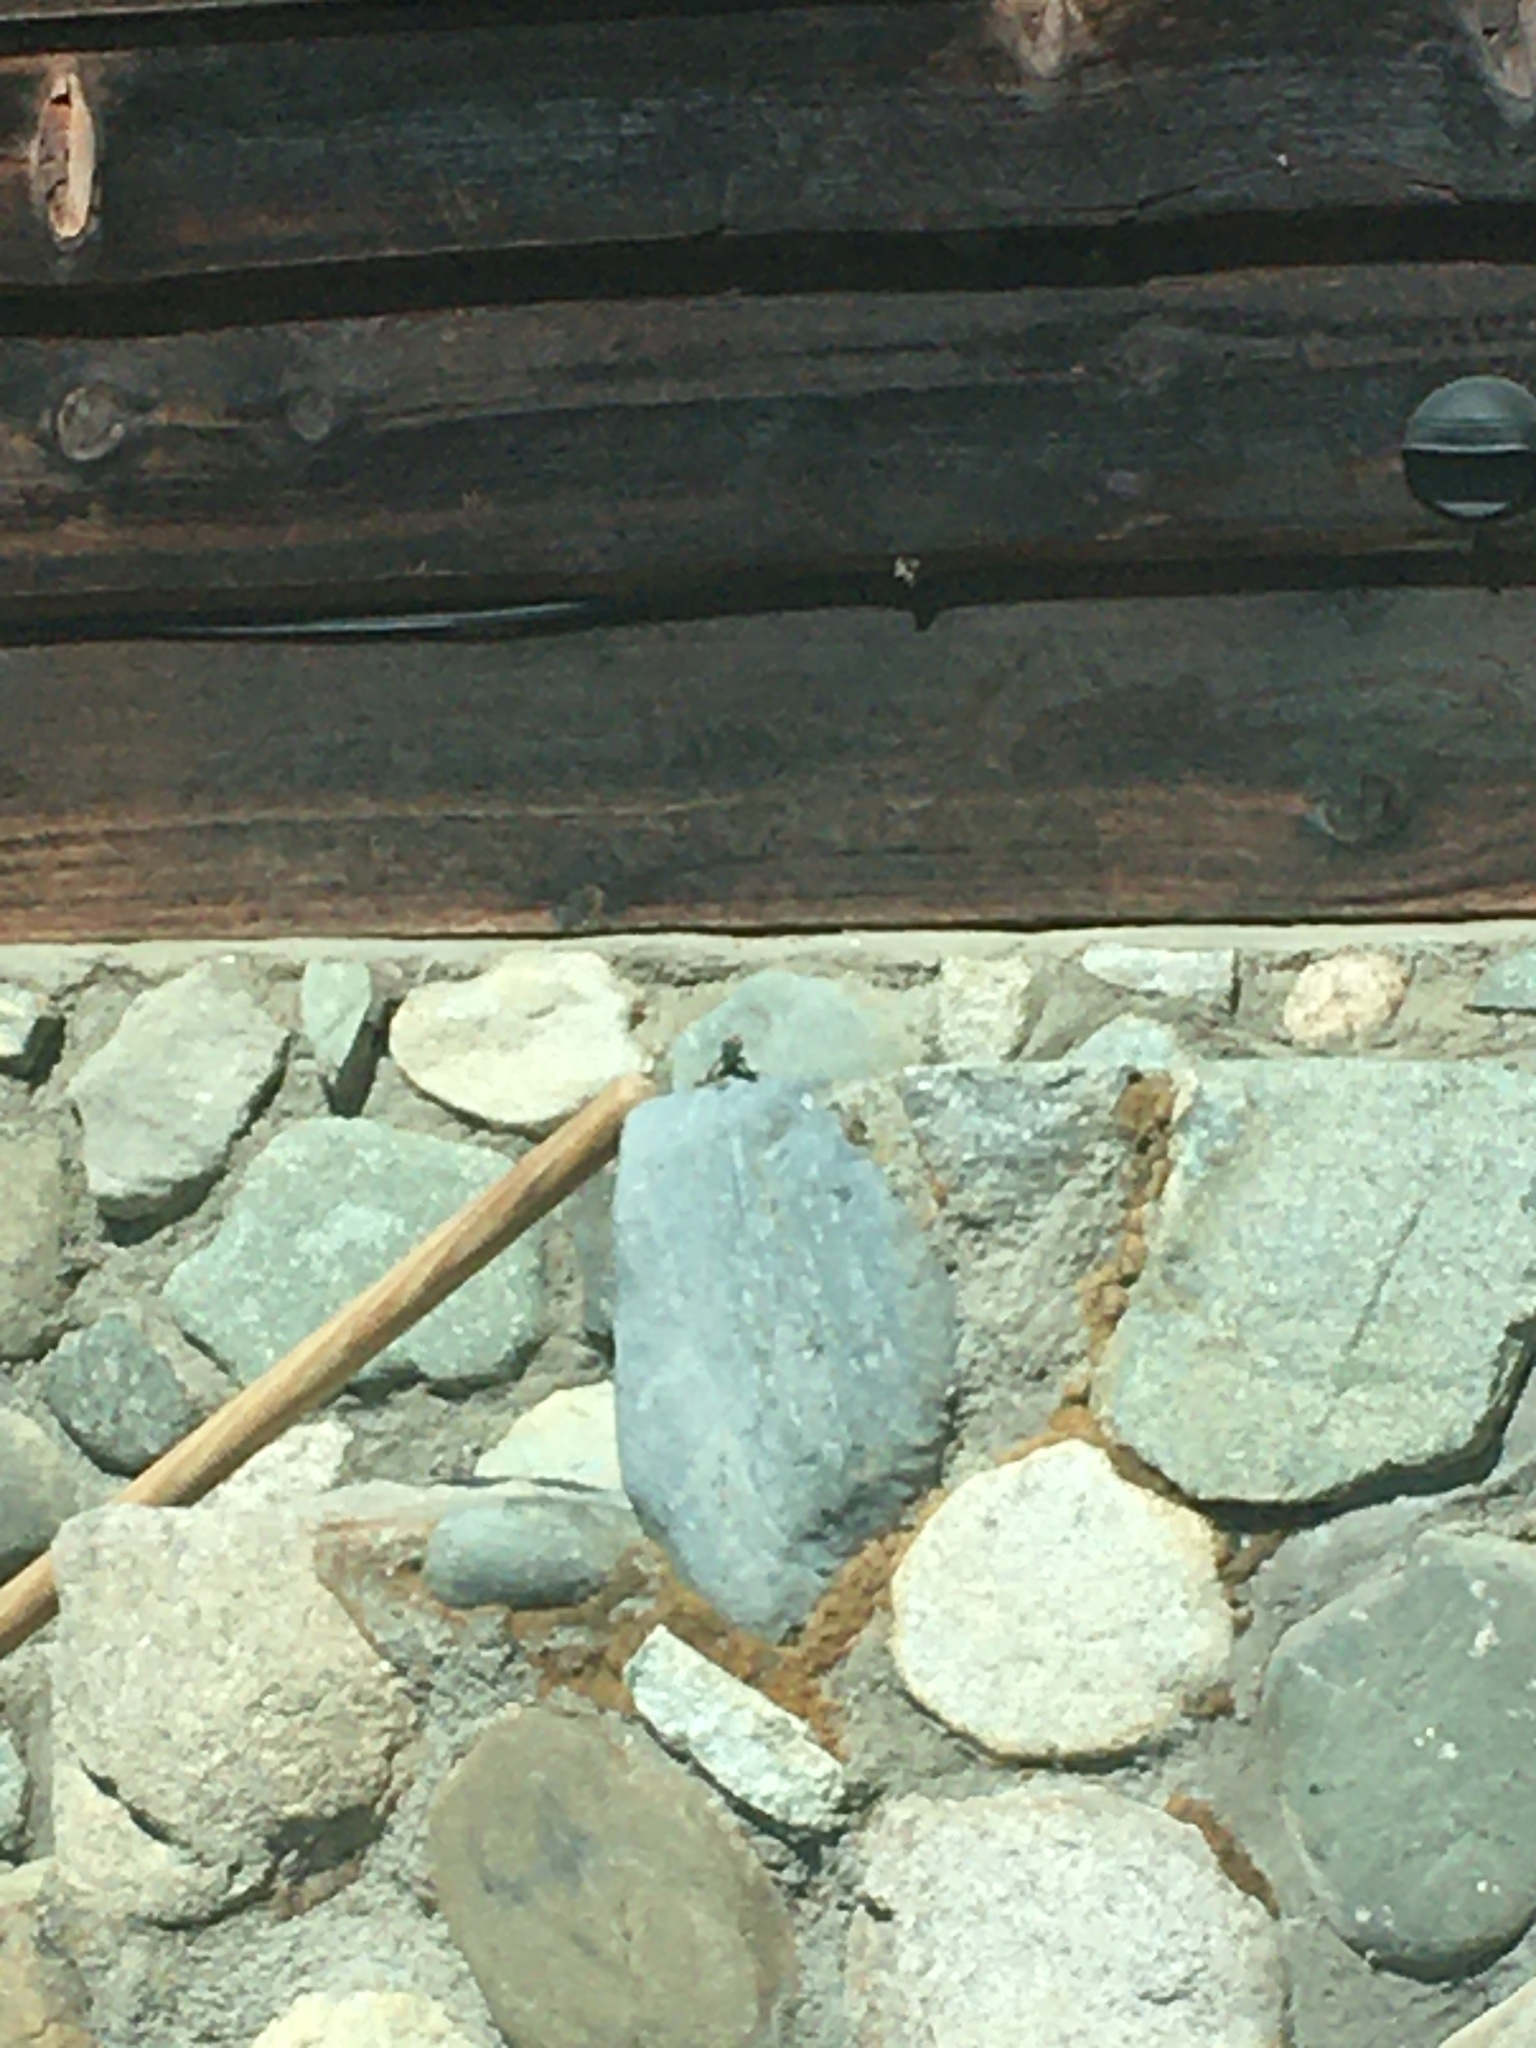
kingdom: Animalia
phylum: Chordata
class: Squamata
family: Lacertidae
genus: Podarcis
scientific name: Podarcis muralis
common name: Common wall lizard
